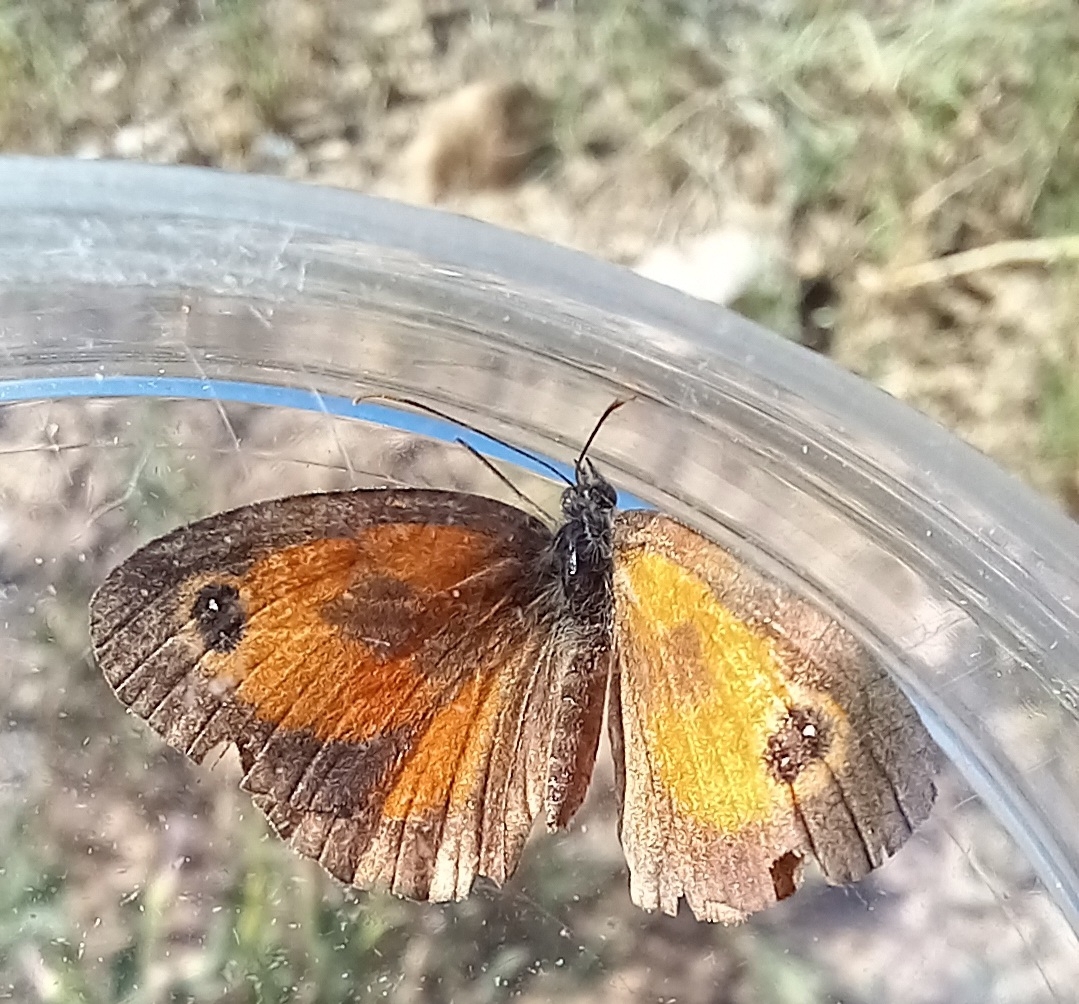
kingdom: Animalia
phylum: Arthropoda
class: Insecta
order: Lepidoptera
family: Nymphalidae
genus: Pyronia
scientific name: Pyronia tithonus
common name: Gatekeeper
